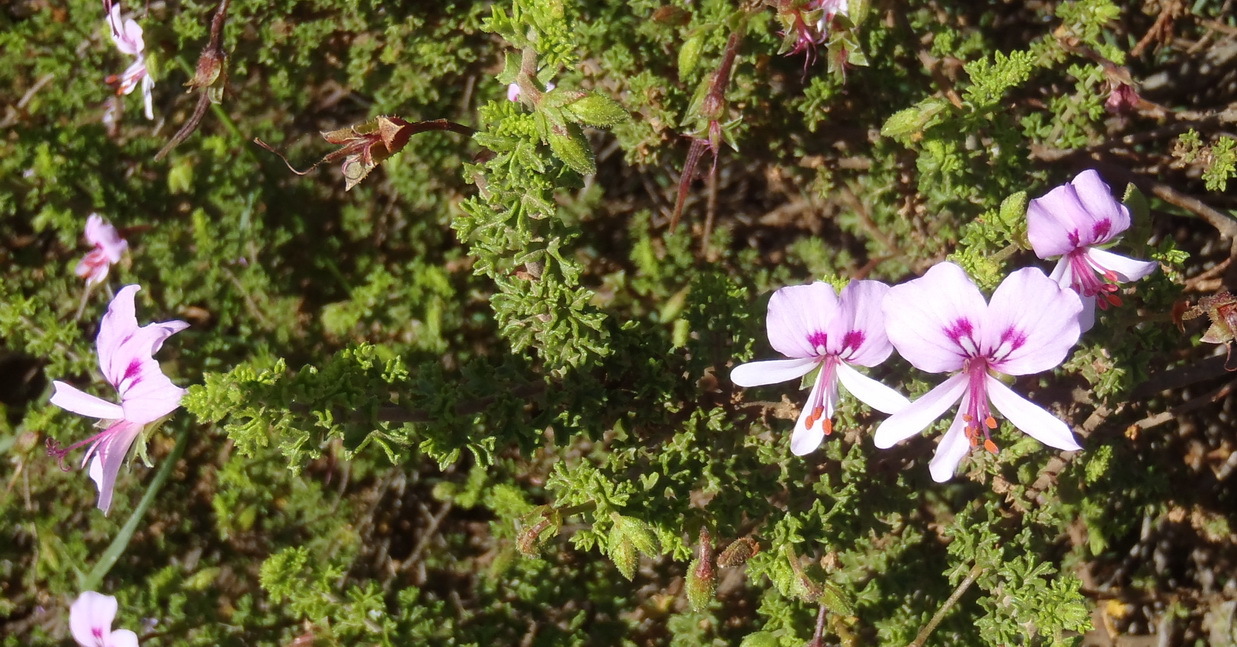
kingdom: Plantae
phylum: Tracheophyta
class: Magnoliopsida
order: Geraniales
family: Geraniaceae
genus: Pelargonium
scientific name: Pelargonium crispum
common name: Crisped-leaf pelargonium
